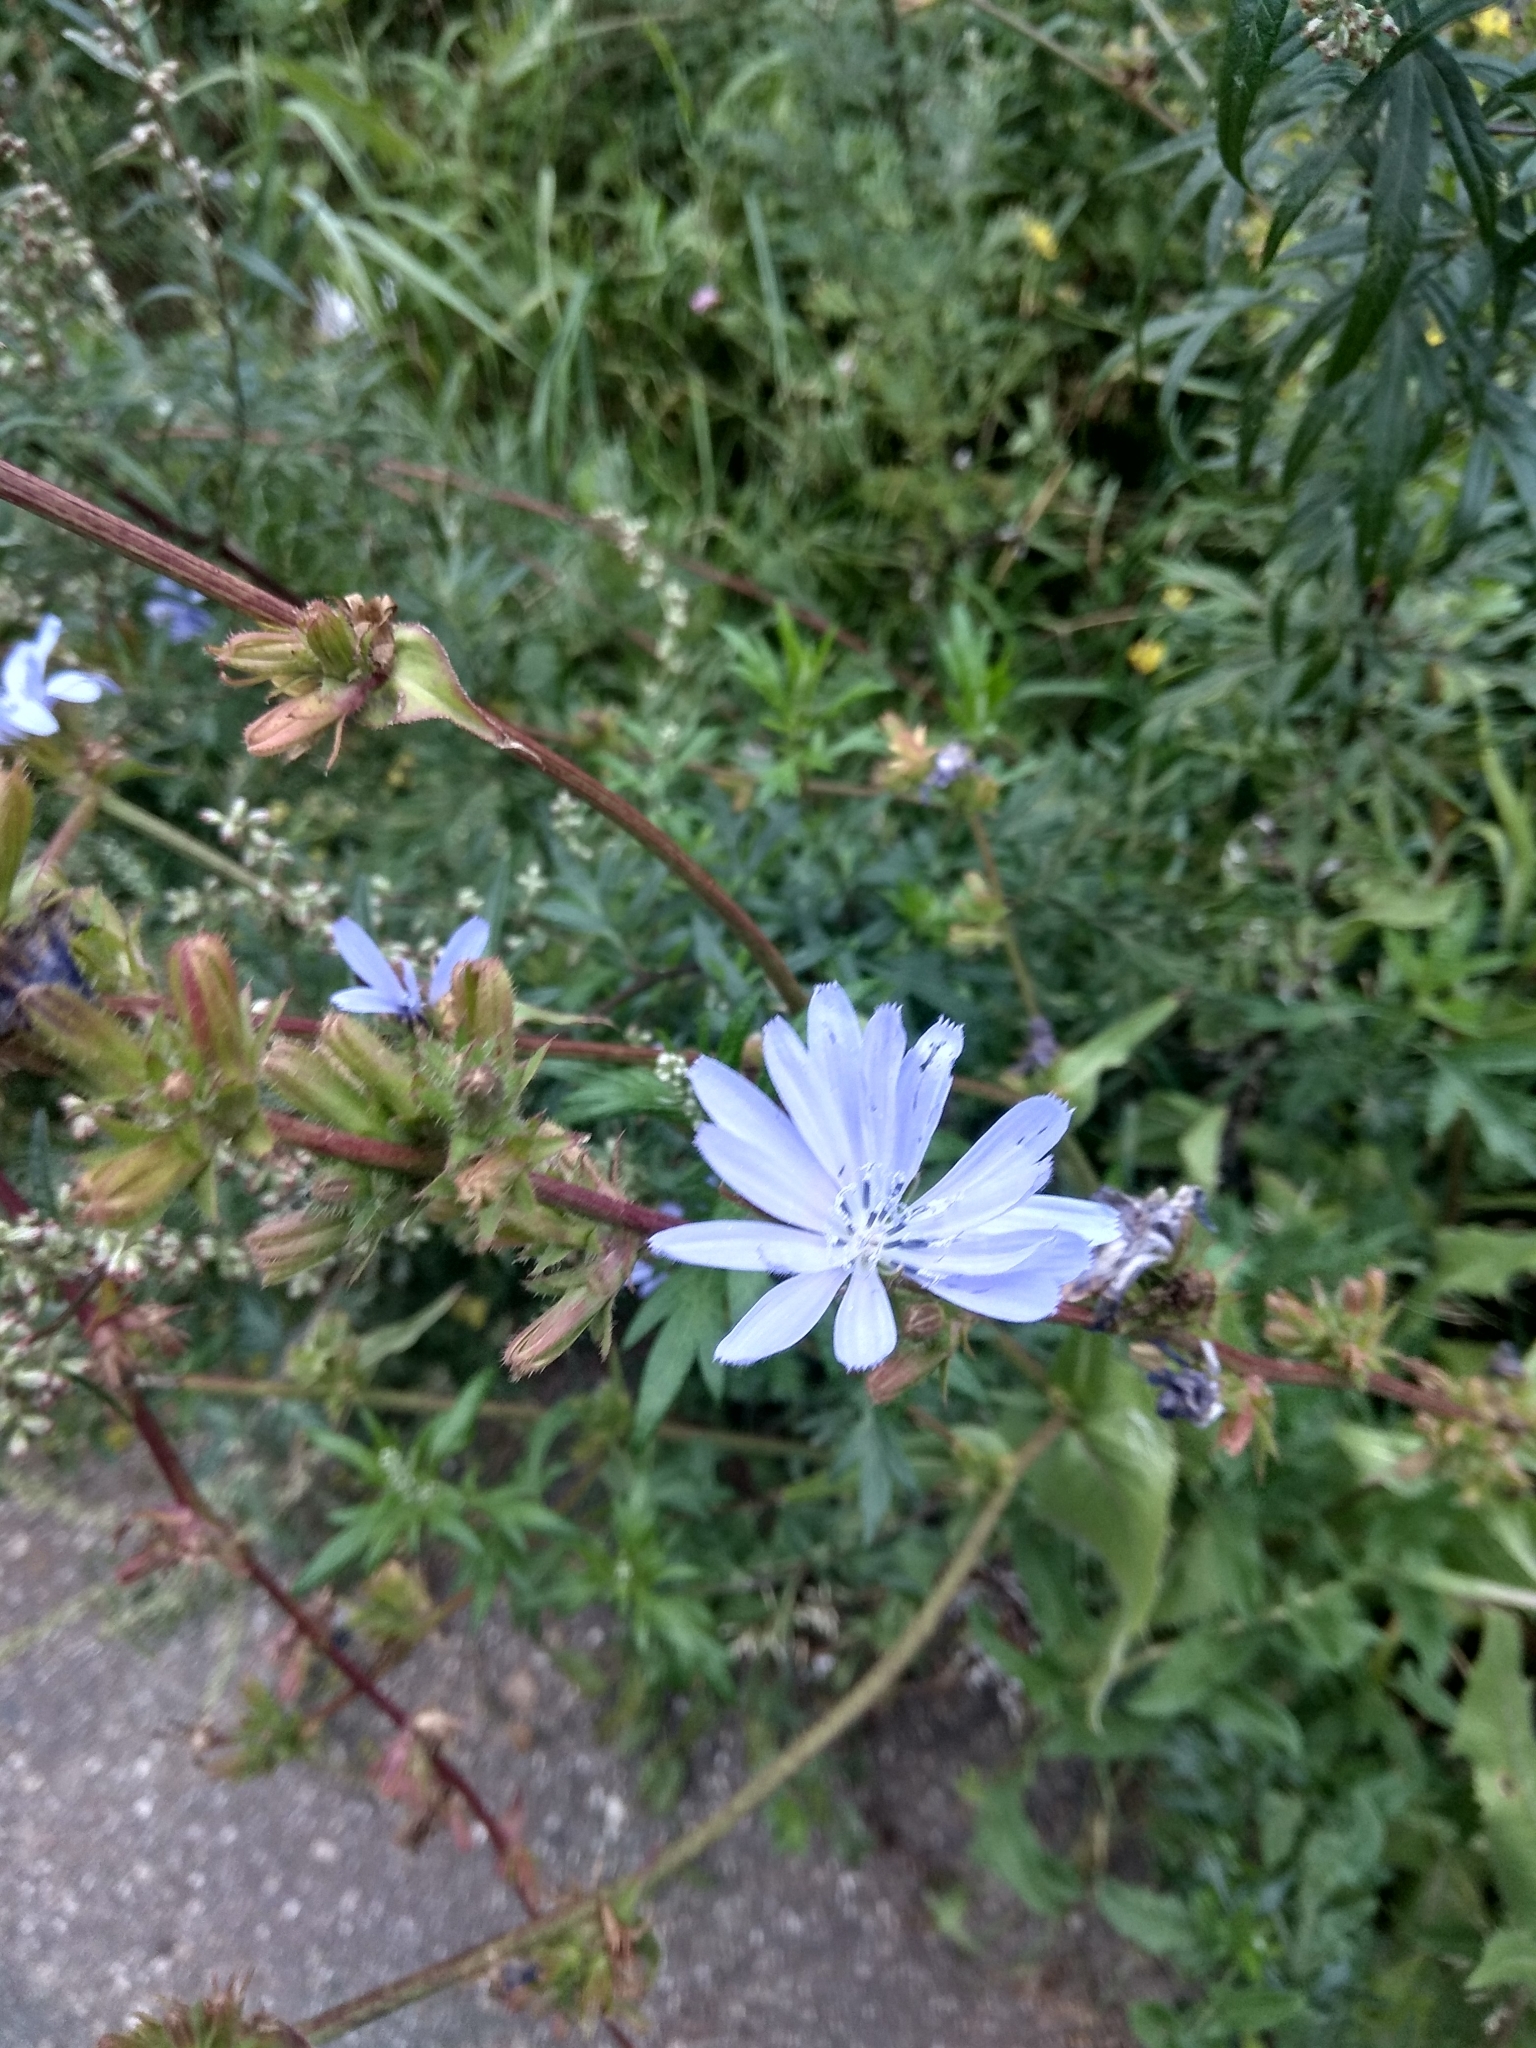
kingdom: Plantae
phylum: Tracheophyta
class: Magnoliopsida
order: Asterales
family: Asteraceae
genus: Cichorium
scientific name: Cichorium intybus
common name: Chicory
